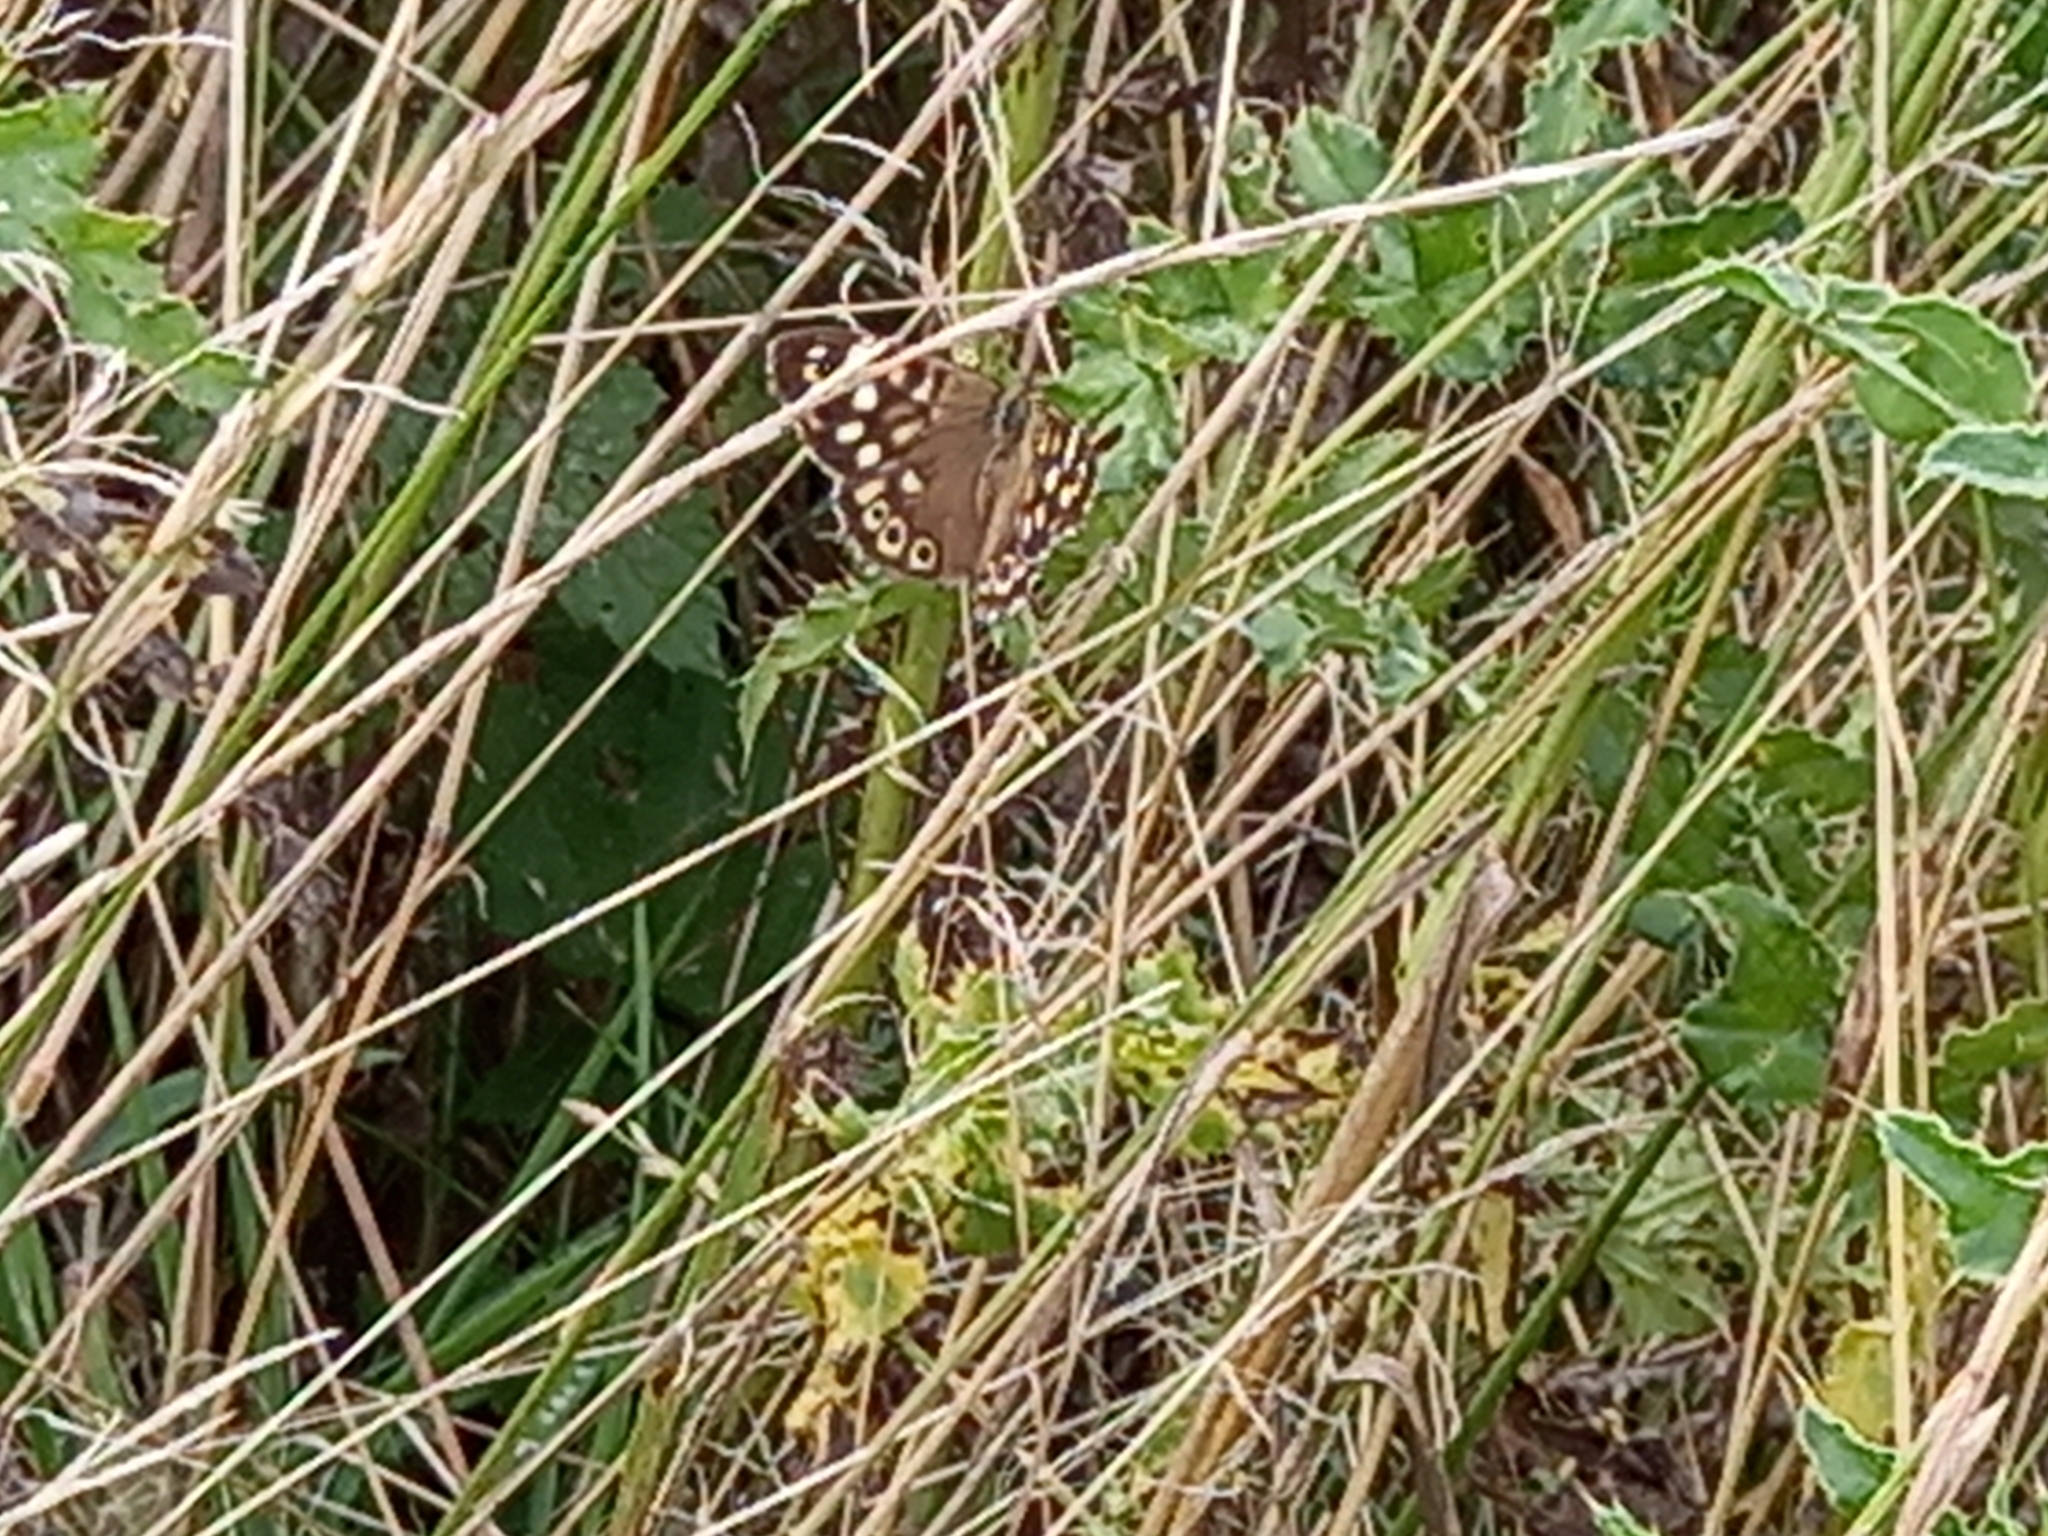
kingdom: Animalia
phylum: Arthropoda
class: Insecta
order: Lepidoptera
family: Nymphalidae
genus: Pararge
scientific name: Pararge aegeria
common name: Speckled wood
